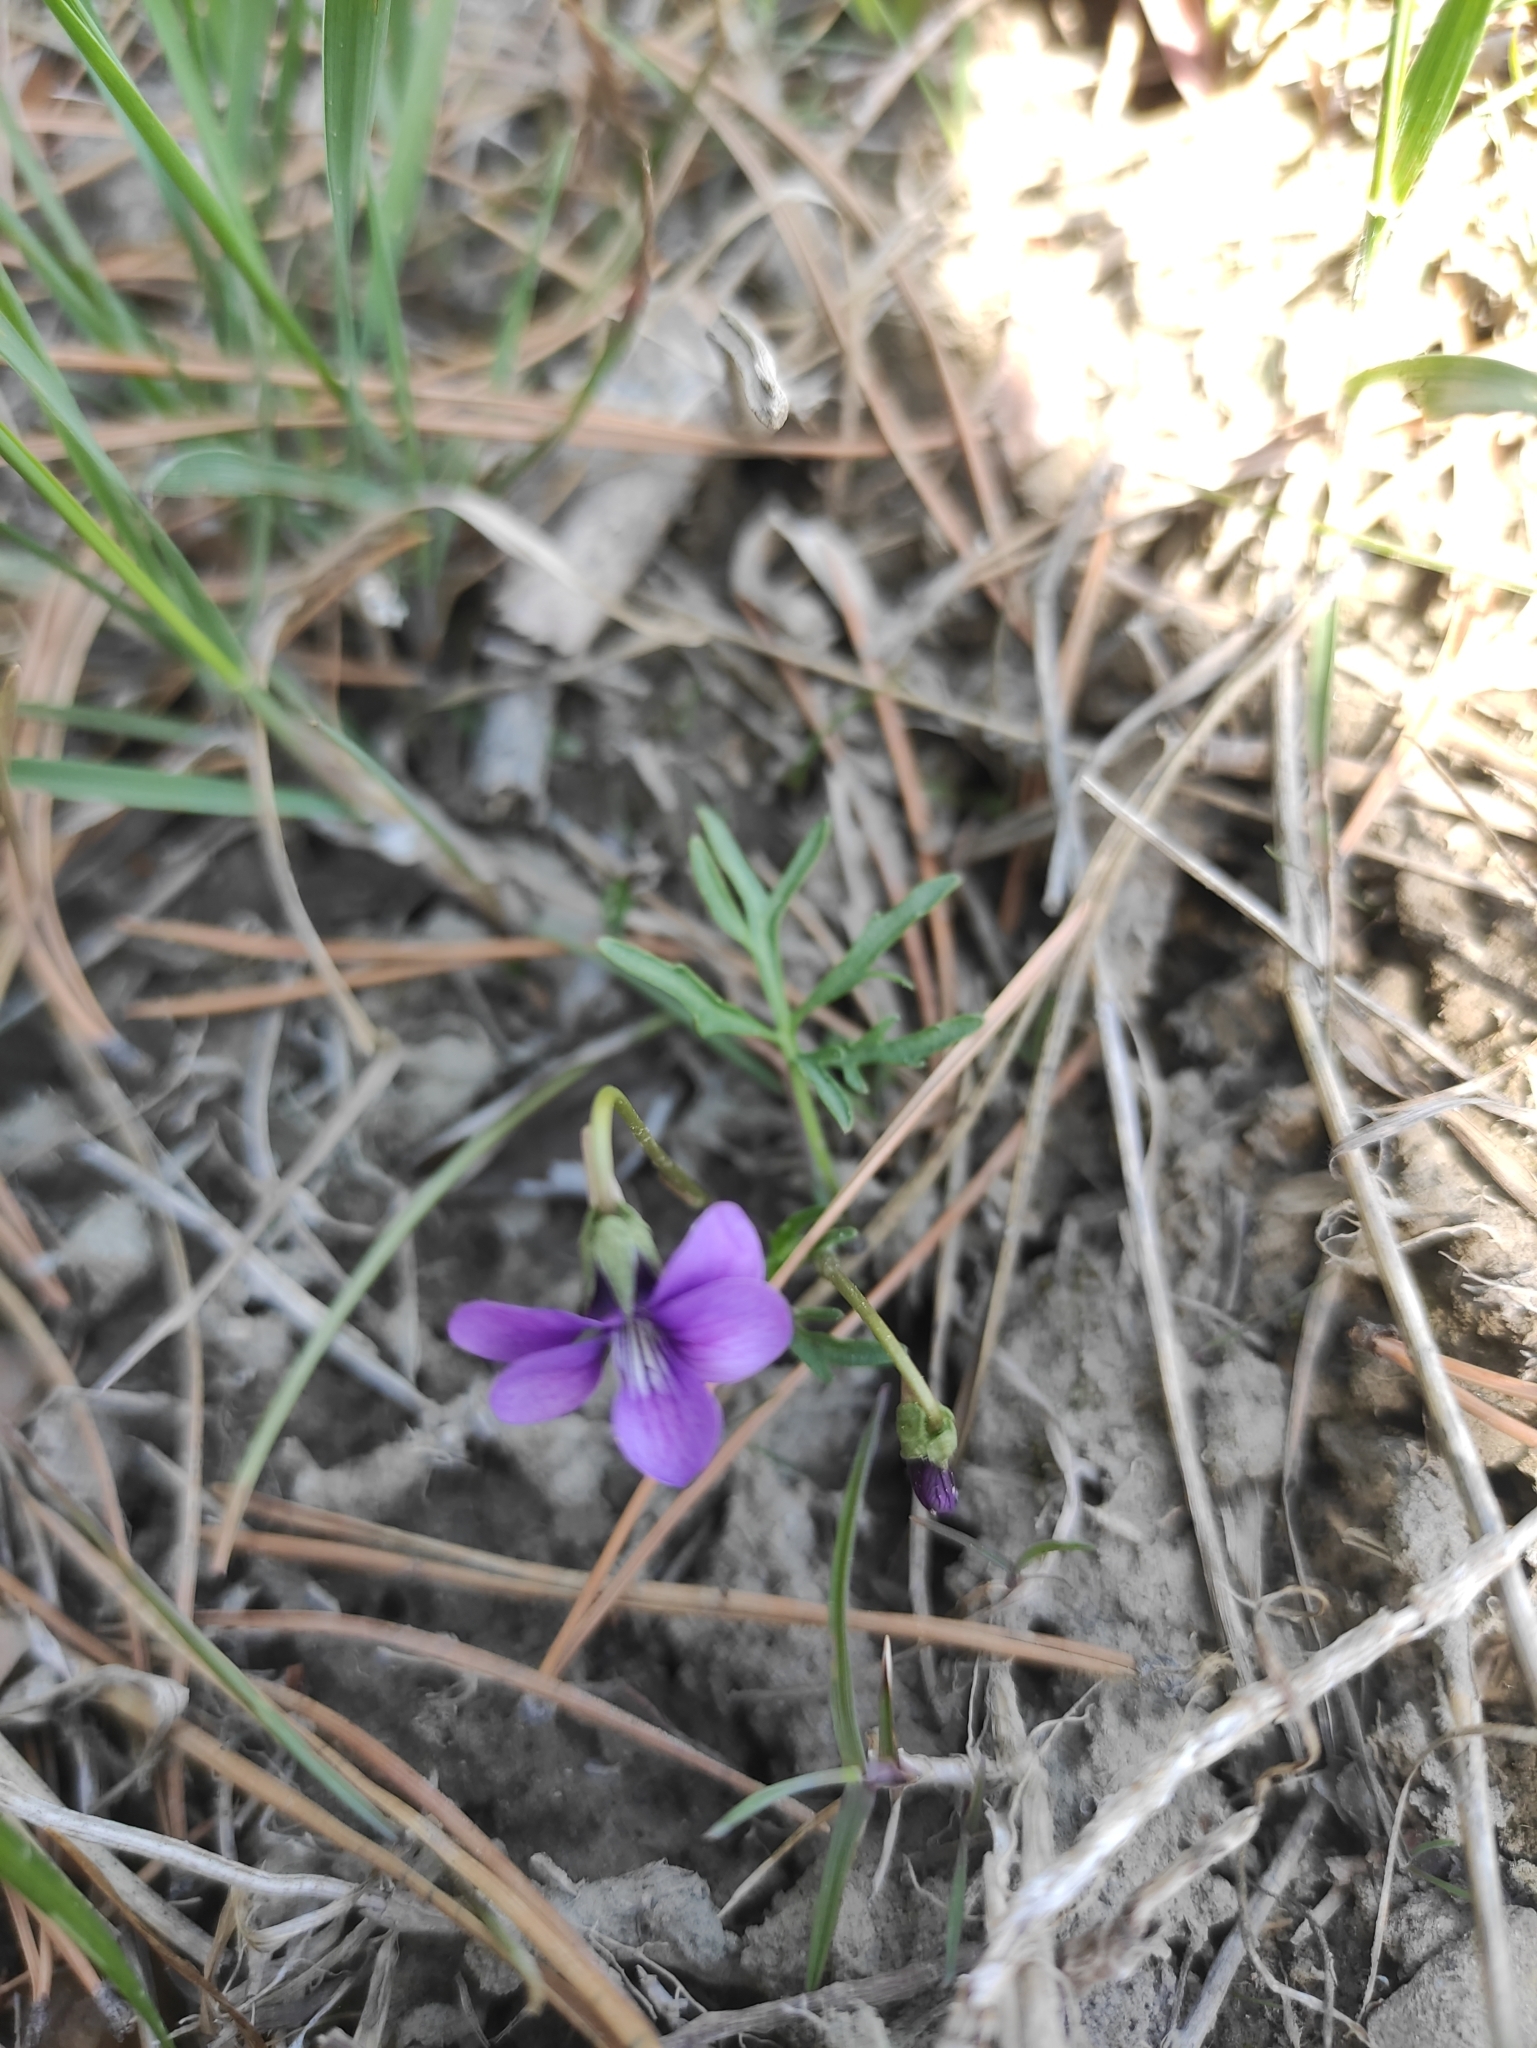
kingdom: Plantae
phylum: Tracheophyta
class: Magnoliopsida
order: Malpighiales
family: Violaceae
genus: Viola
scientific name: Viola multifida
